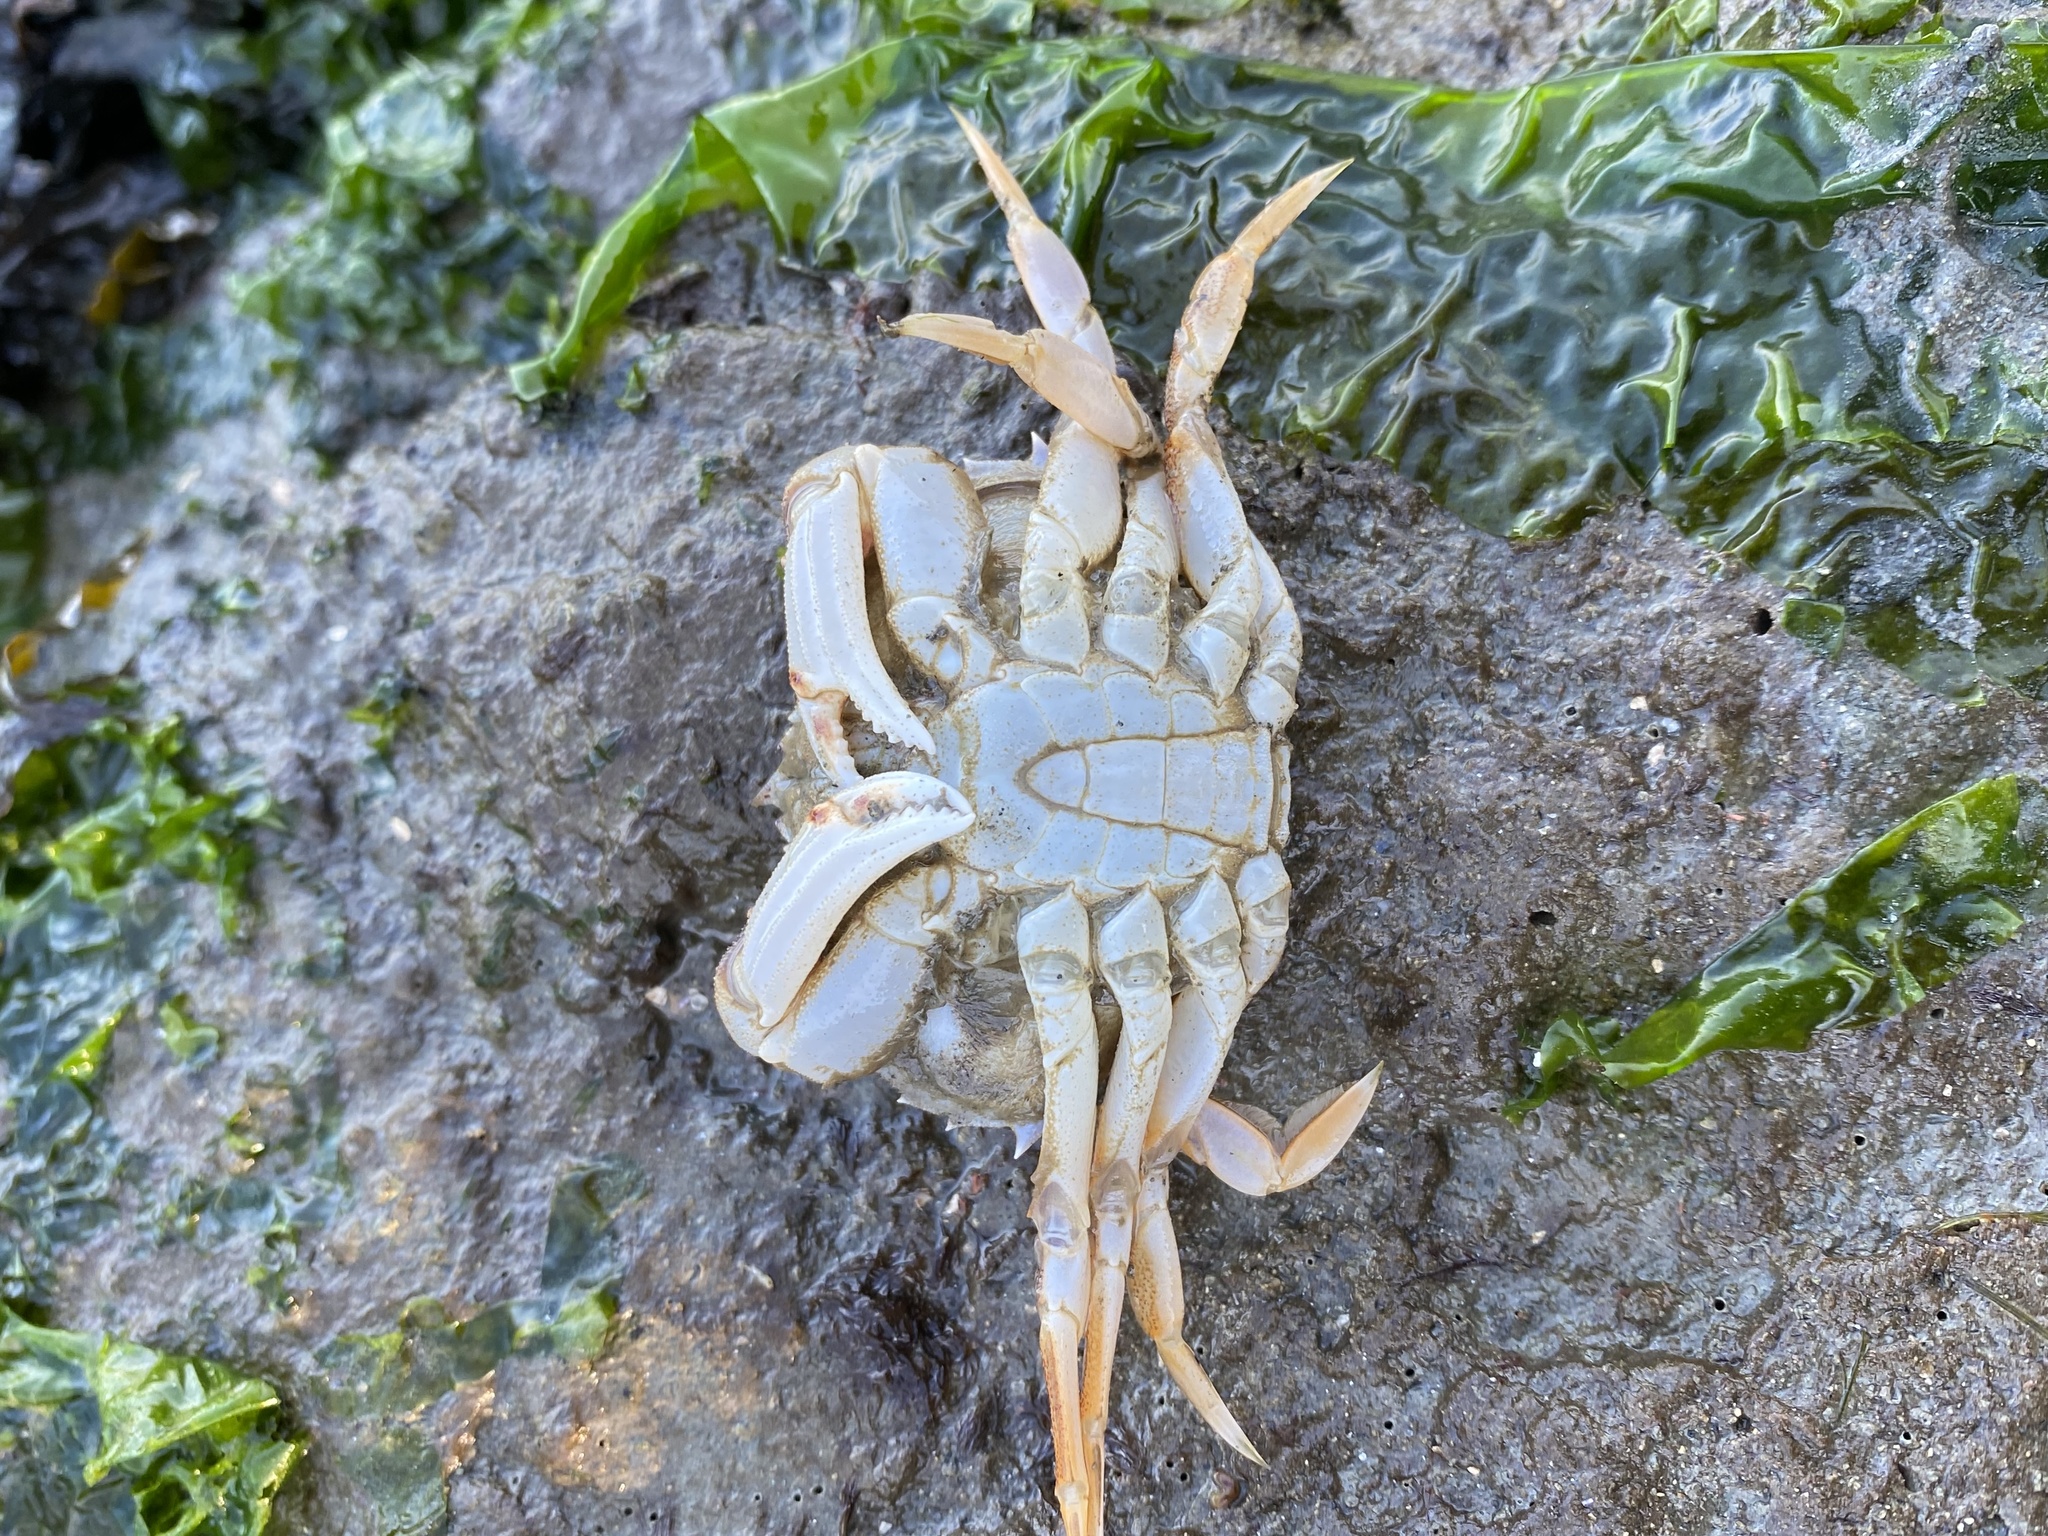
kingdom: Animalia
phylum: Arthropoda
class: Malacostraca
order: Decapoda
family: Cancridae
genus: Metacarcinus
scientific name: Metacarcinus magister
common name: Californian crab
